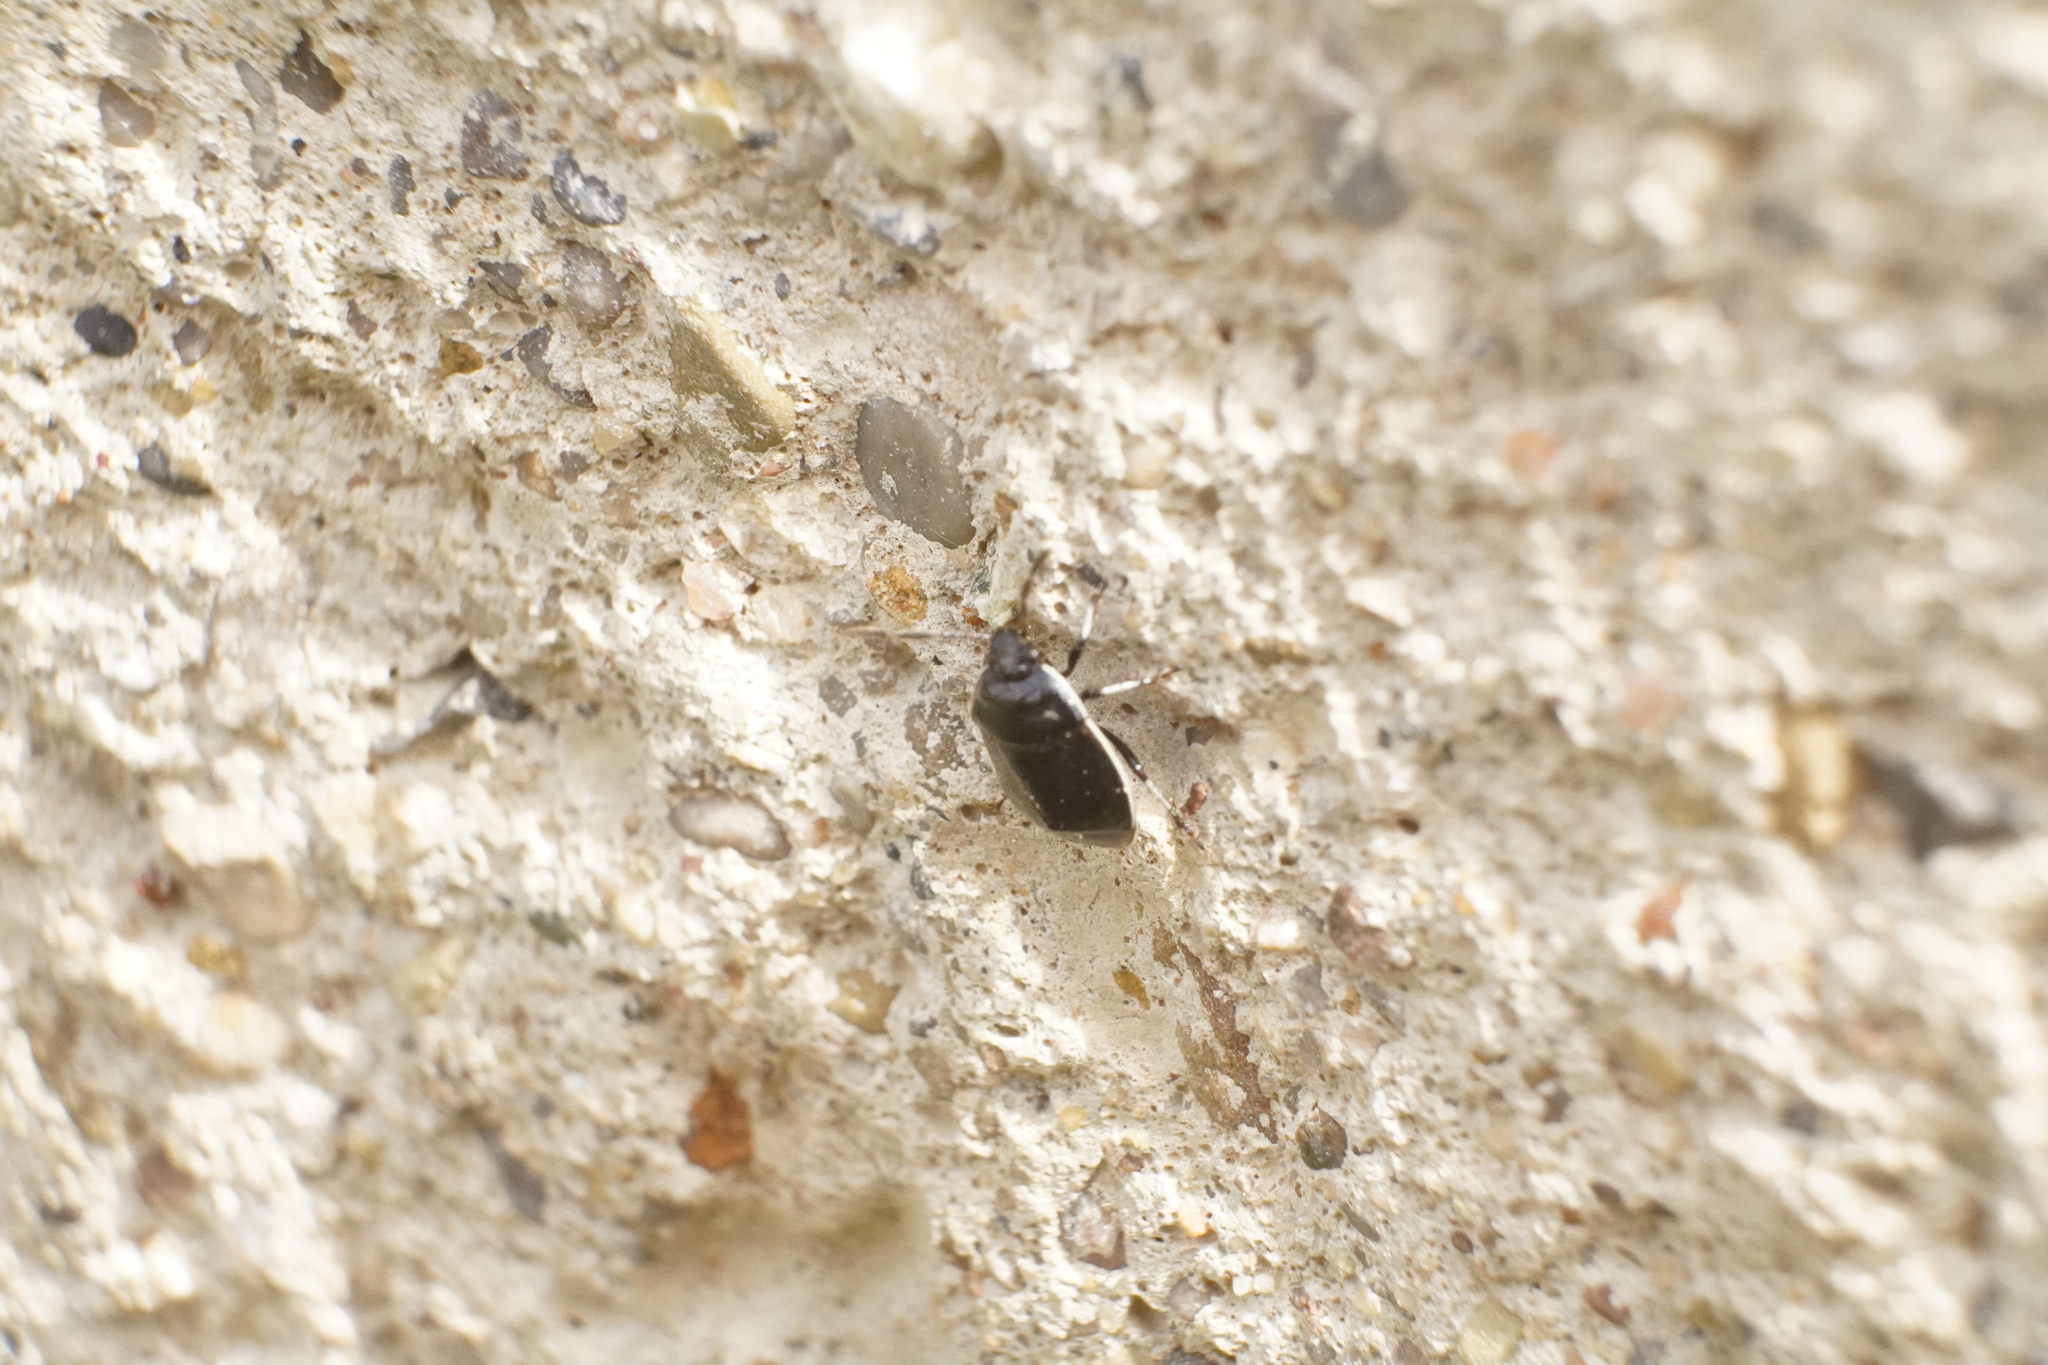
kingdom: Animalia
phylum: Arthropoda
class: Insecta
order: Hemiptera
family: Cydnidae
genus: Sehirus
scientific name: Sehirus cinctus
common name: White-margined burrower bug
